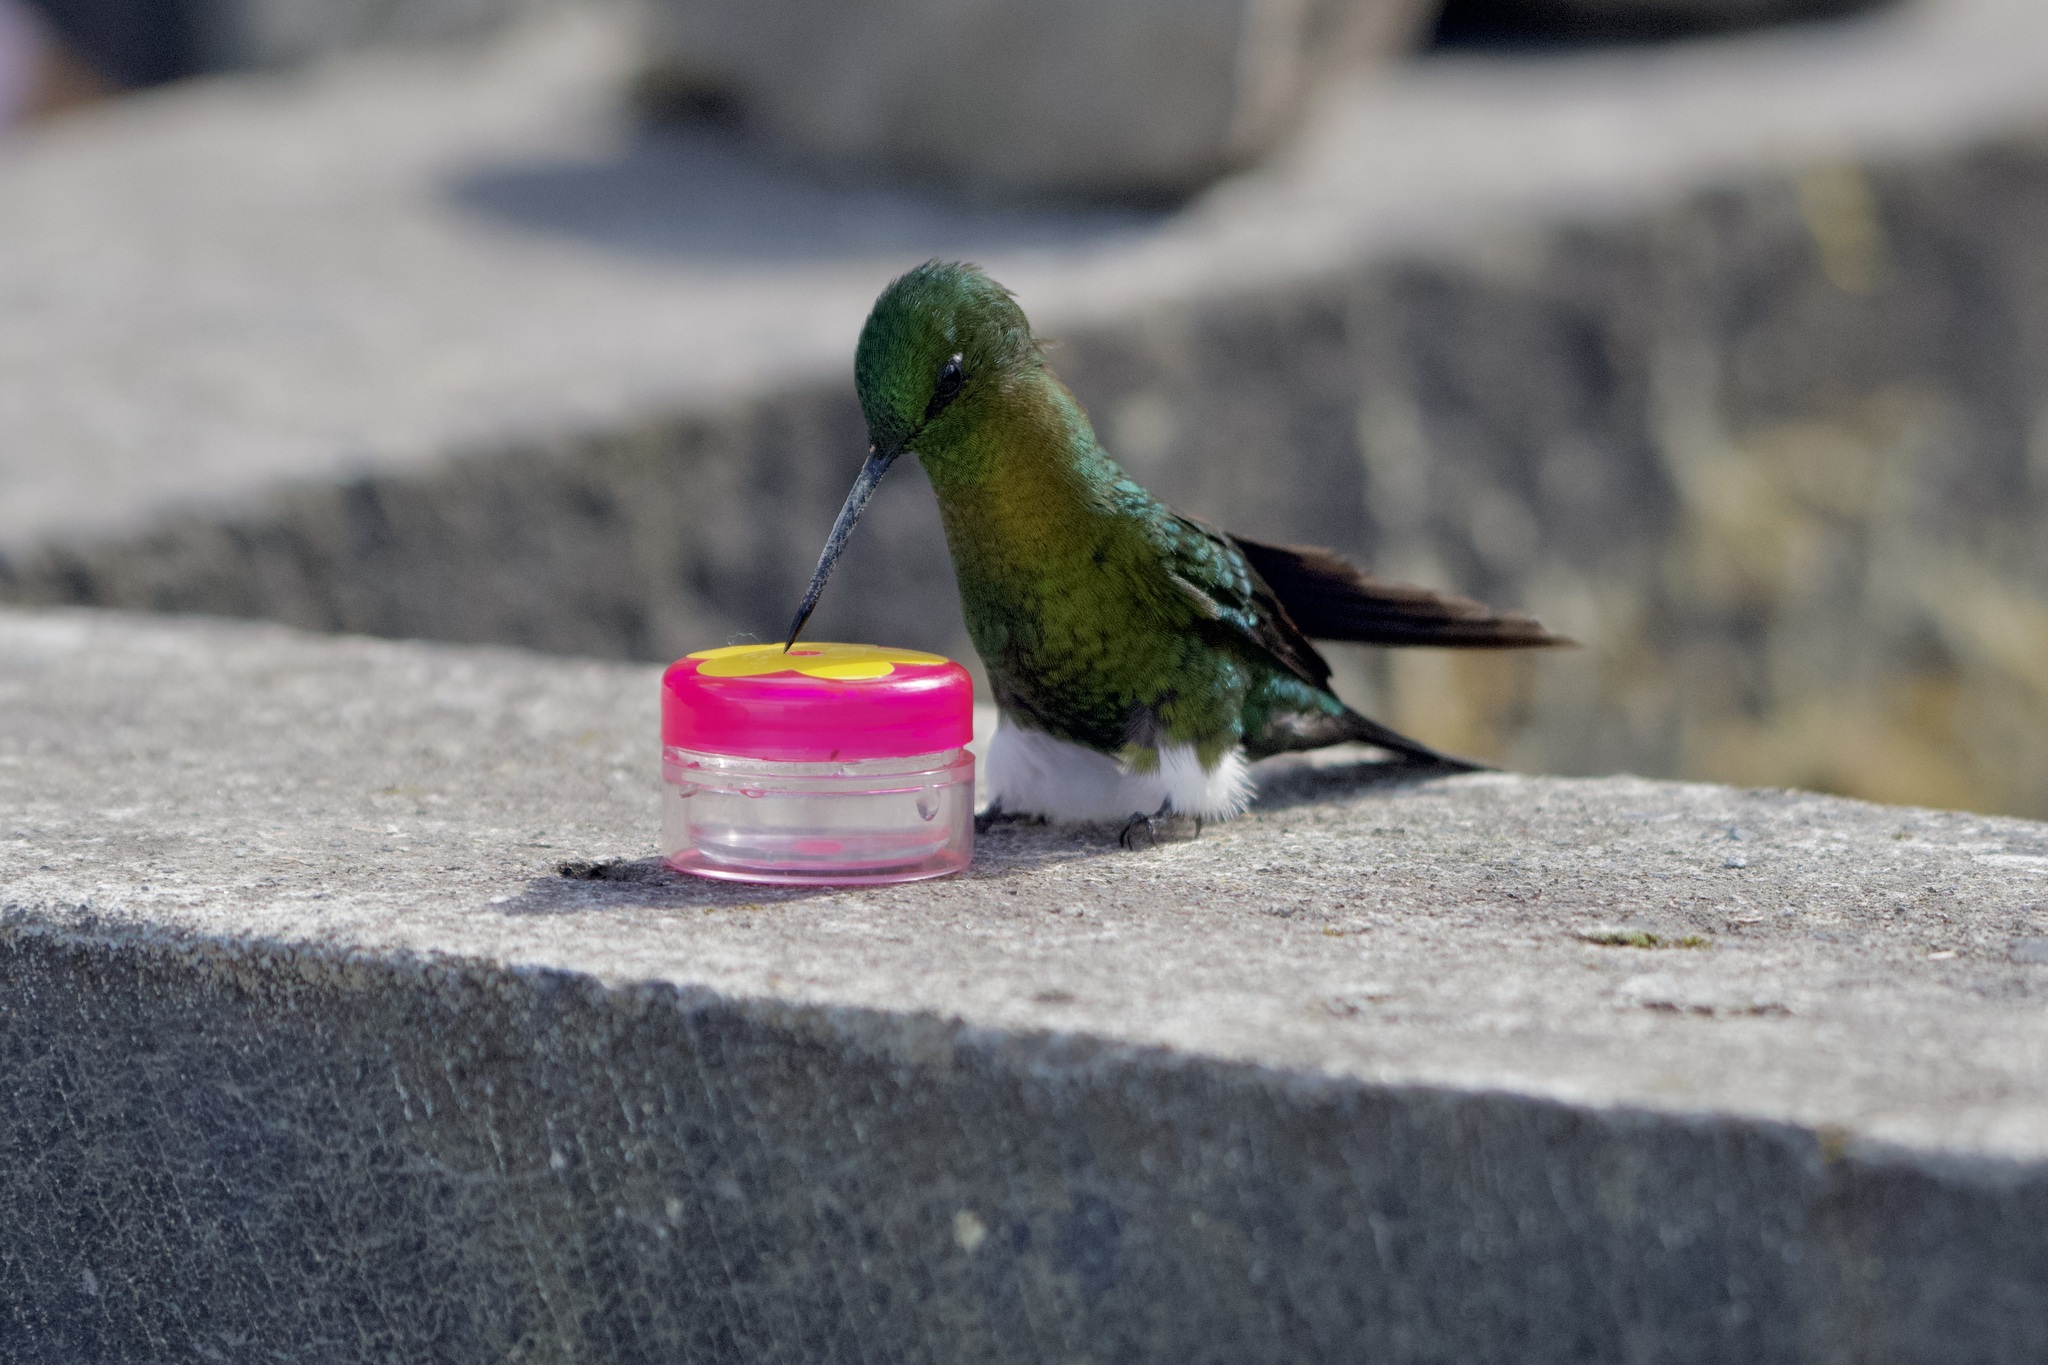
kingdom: Animalia
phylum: Chordata
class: Aves
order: Apodiformes
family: Trochilidae
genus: Eriocnemis
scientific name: Eriocnemis mosquera
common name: Golden-breasted puffleg
